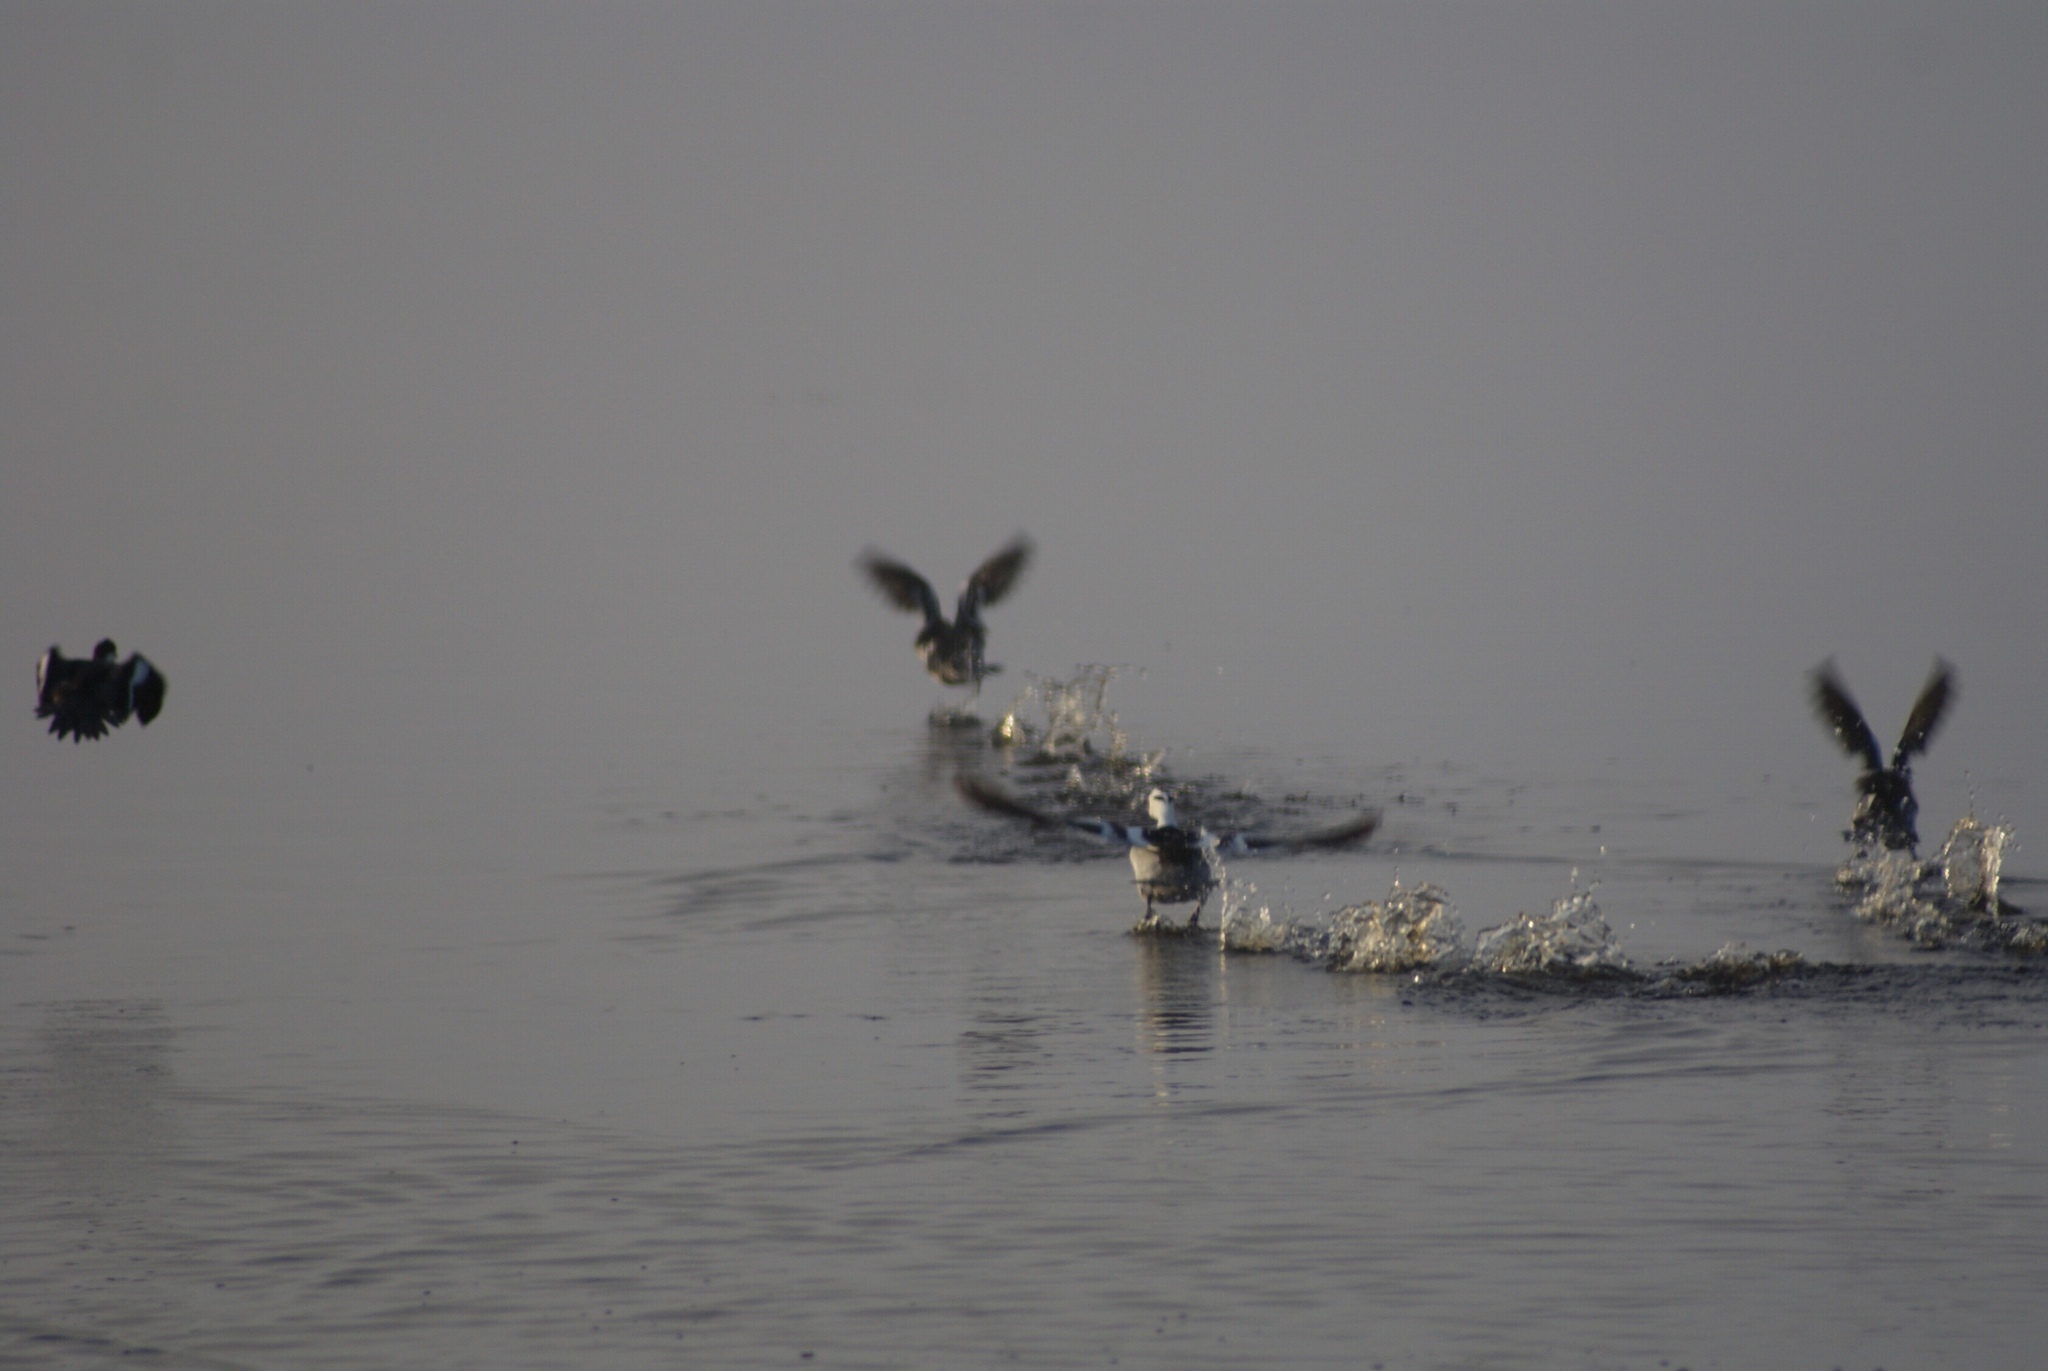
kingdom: Animalia
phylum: Chordata
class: Aves
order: Anseriformes
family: Anatidae
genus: Mergellus
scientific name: Mergellus albellus
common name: Smew
